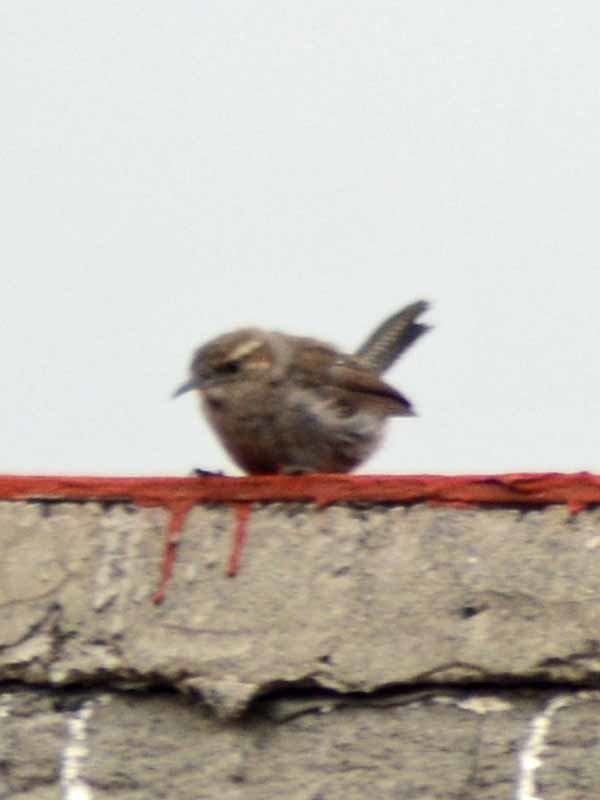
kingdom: Animalia
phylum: Chordata
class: Aves
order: Passeriformes
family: Troglodytidae
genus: Thryomanes
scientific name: Thryomanes bewickii
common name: Bewick's wren
